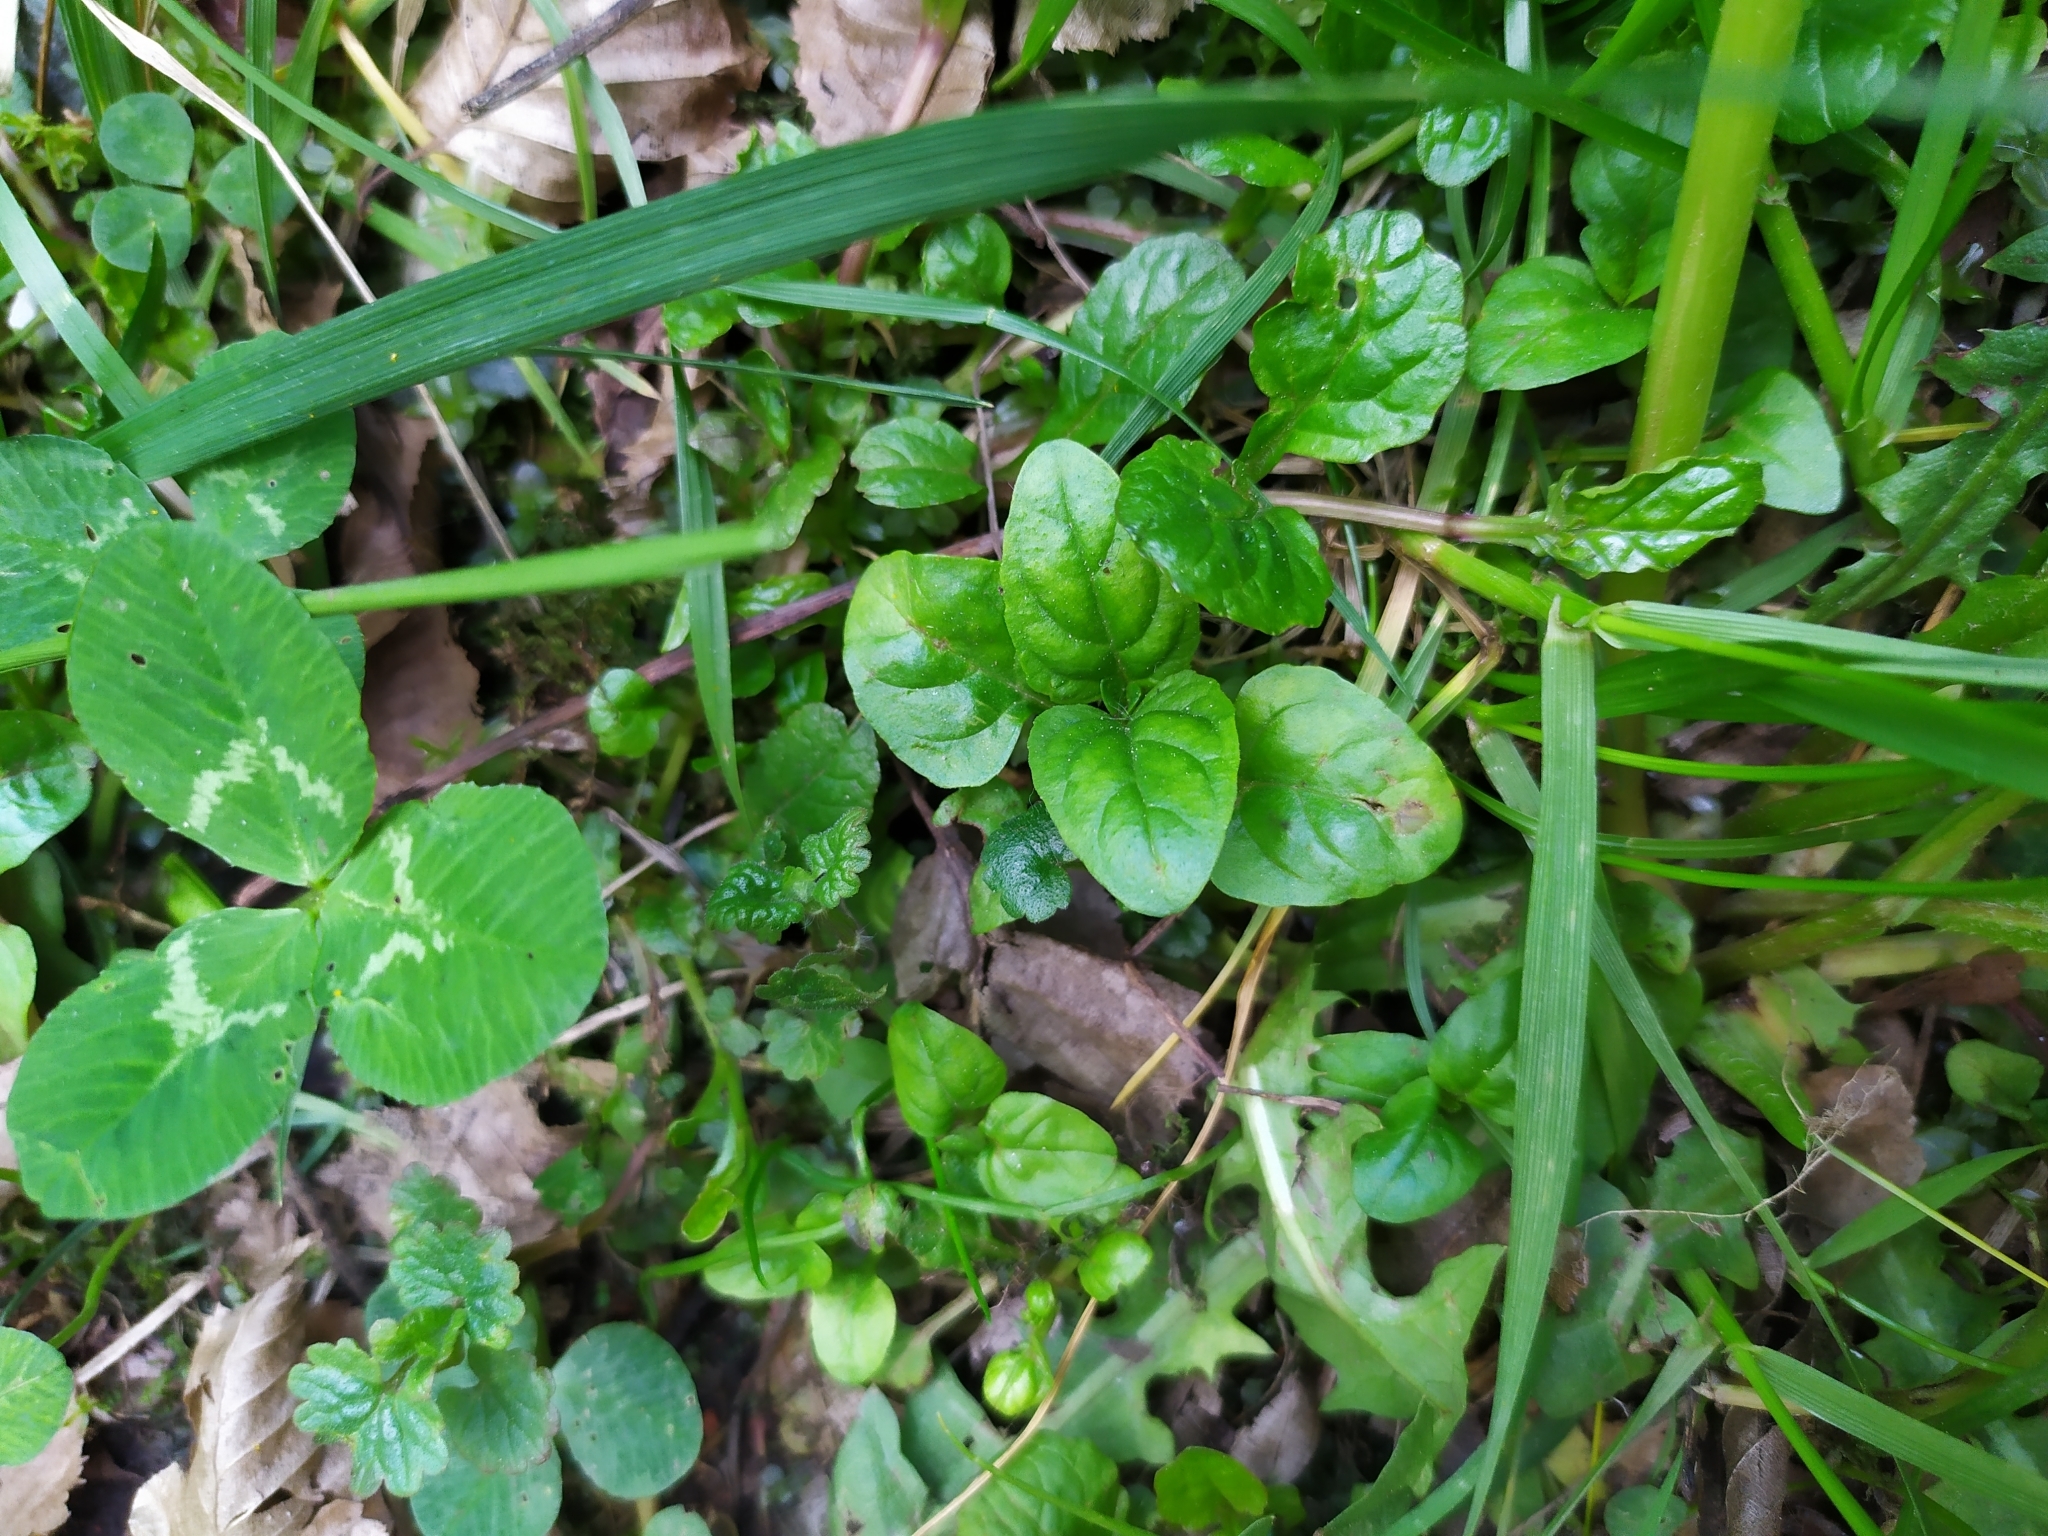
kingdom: Plantae
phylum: Tracheophyta
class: Magnoliopsida
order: Lamiales
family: Lamiaceae
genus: Prunella
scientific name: Prunella vulgaris
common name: Heal-all
